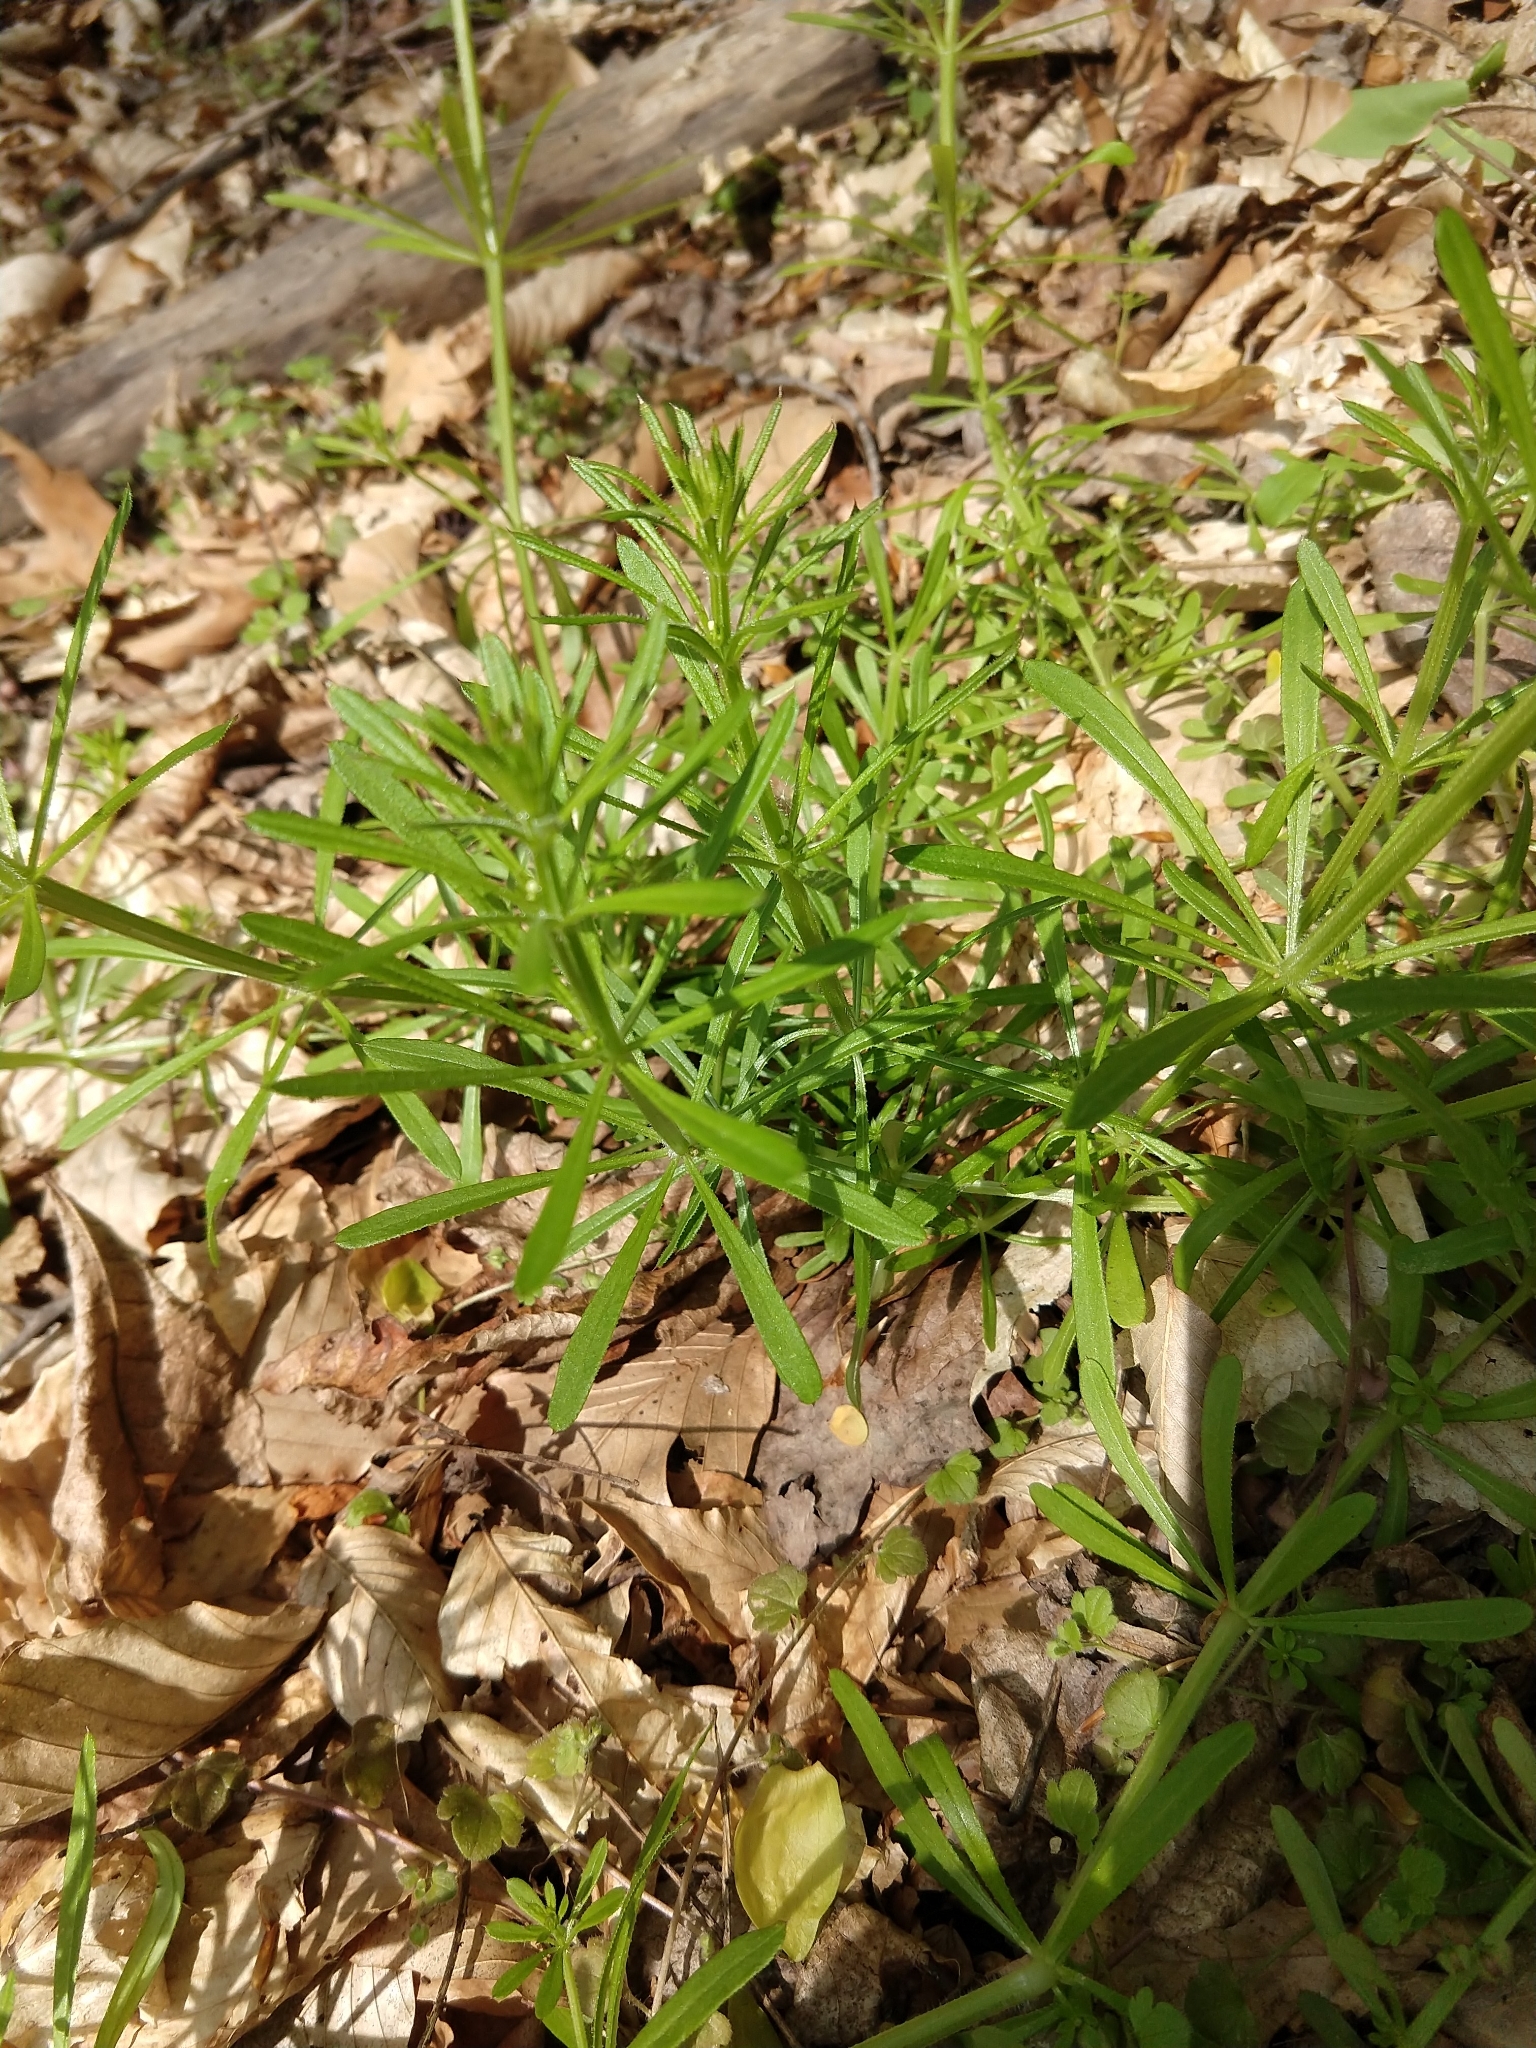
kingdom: Plantae
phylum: Tracheophyta
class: Magnoliopsida
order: Gentianales
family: Rubiaceae
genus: Galium
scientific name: Galium aparine
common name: Cleavers
